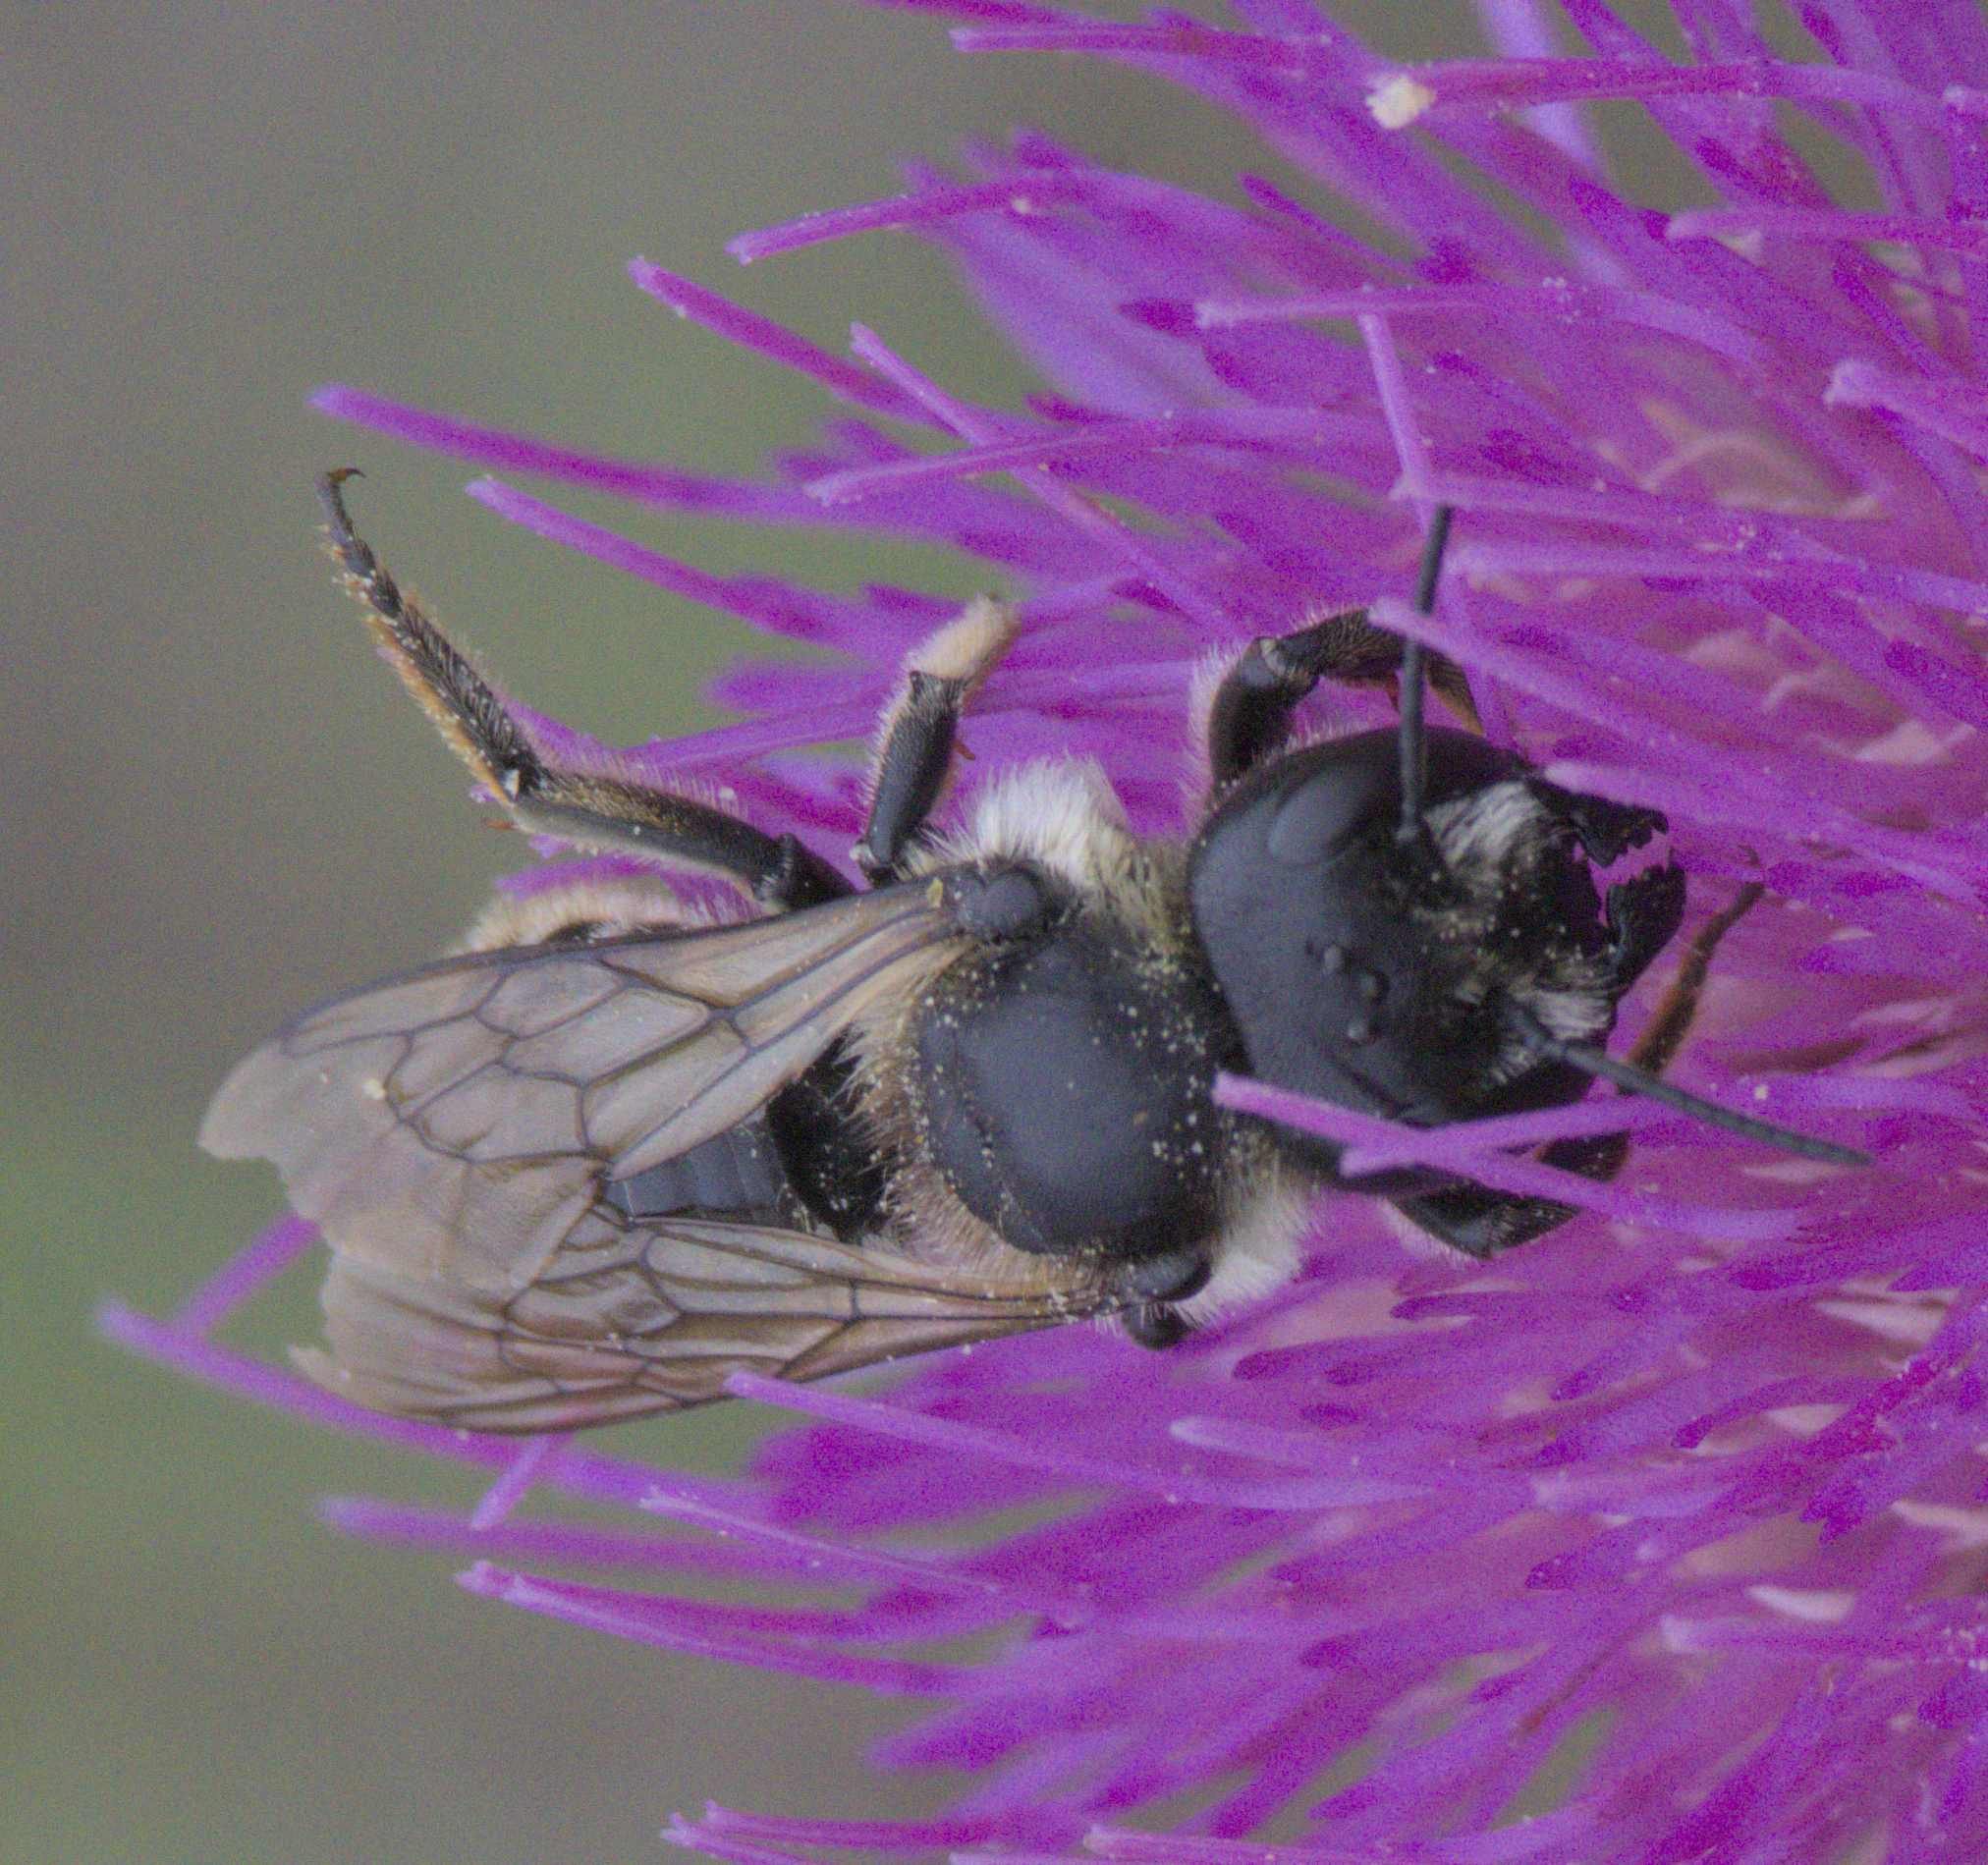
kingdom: Animalia
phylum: Arthropoda
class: Insecta
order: Hymenoptera
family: Megachilidae
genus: Megachile
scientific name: Megachile inermis
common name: Unarmed leafcutter bee
